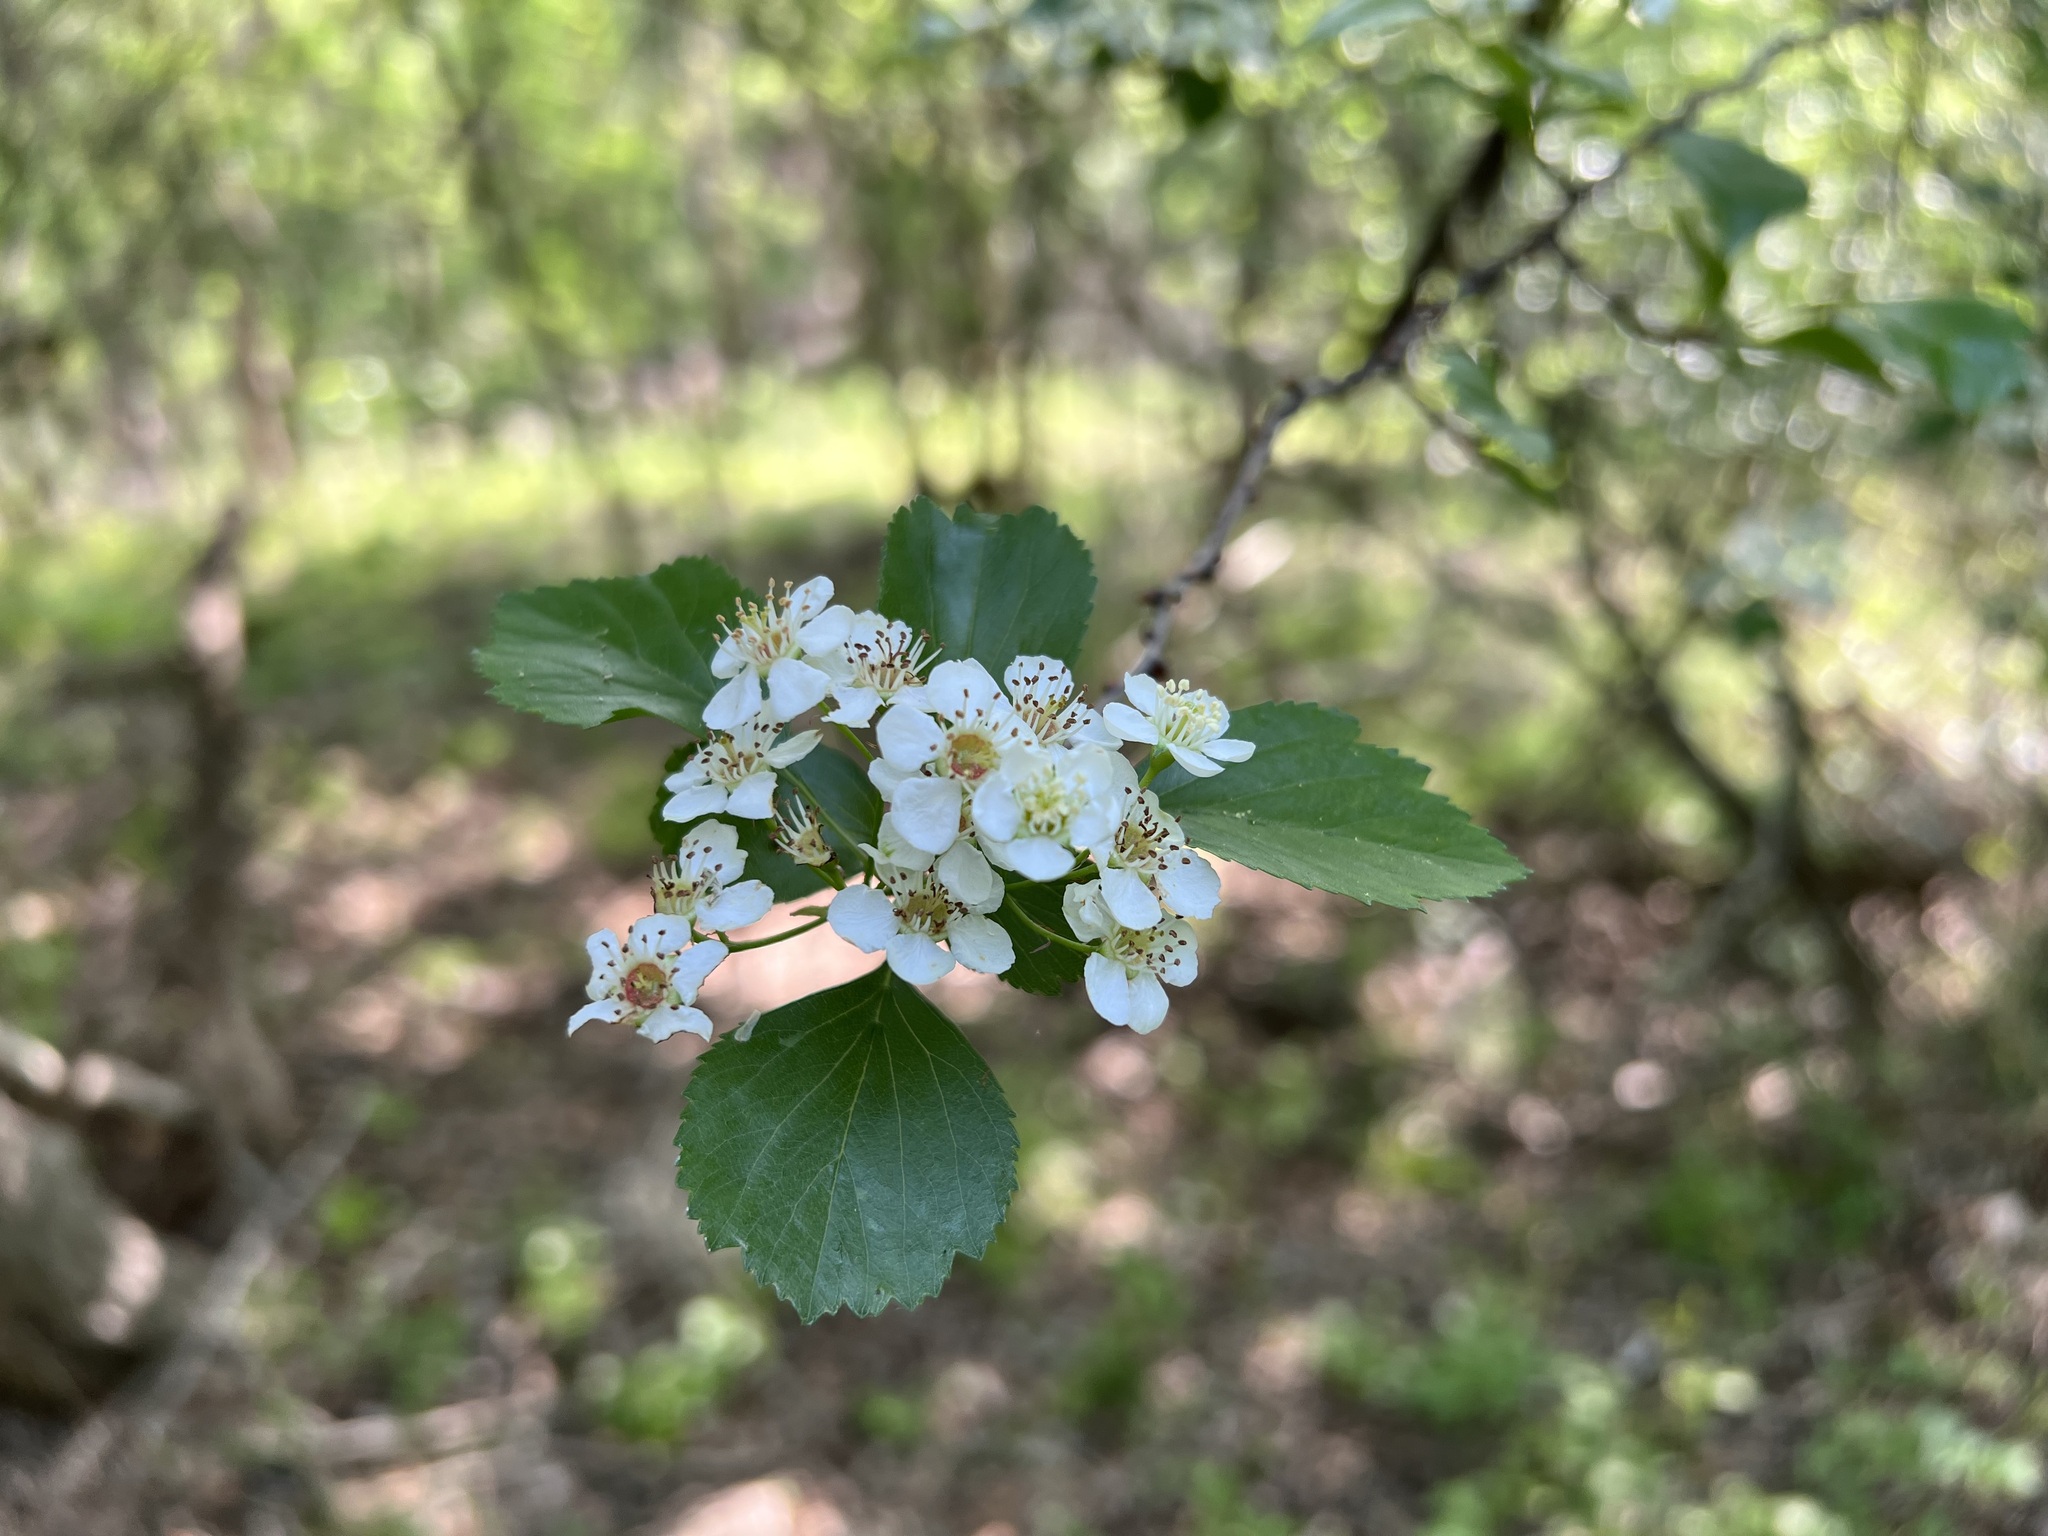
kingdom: Plantae
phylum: Tracheophyta
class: Magnoliopsida
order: Rosales
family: Rosaceae
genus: Crataegus
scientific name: Crataegus viridis
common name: Southernthorn
